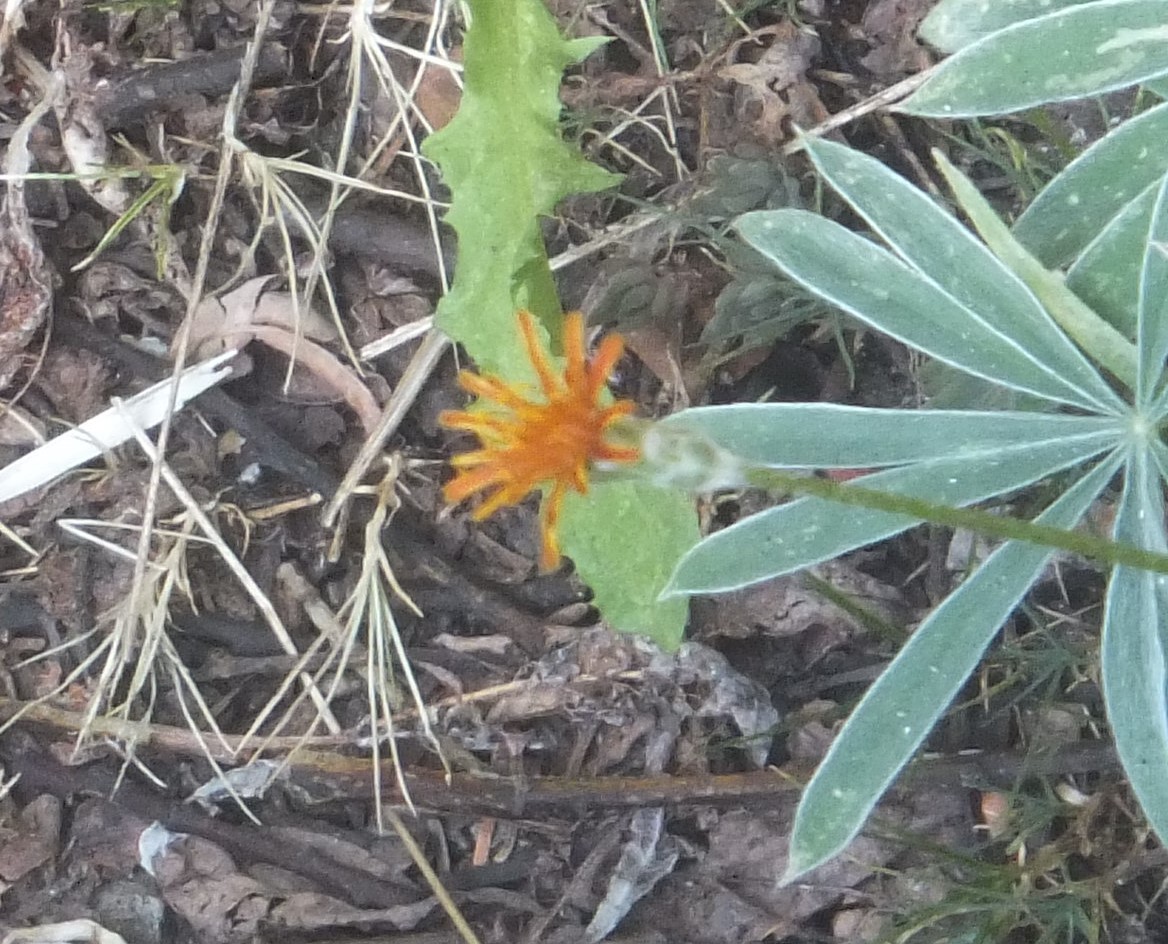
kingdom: Plantae
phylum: Tracheophyta
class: Magnoliopsida
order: Asterales
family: Asteraceae
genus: Agoseris
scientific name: Agoseris aurantiaca
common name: Mountain agoseris
